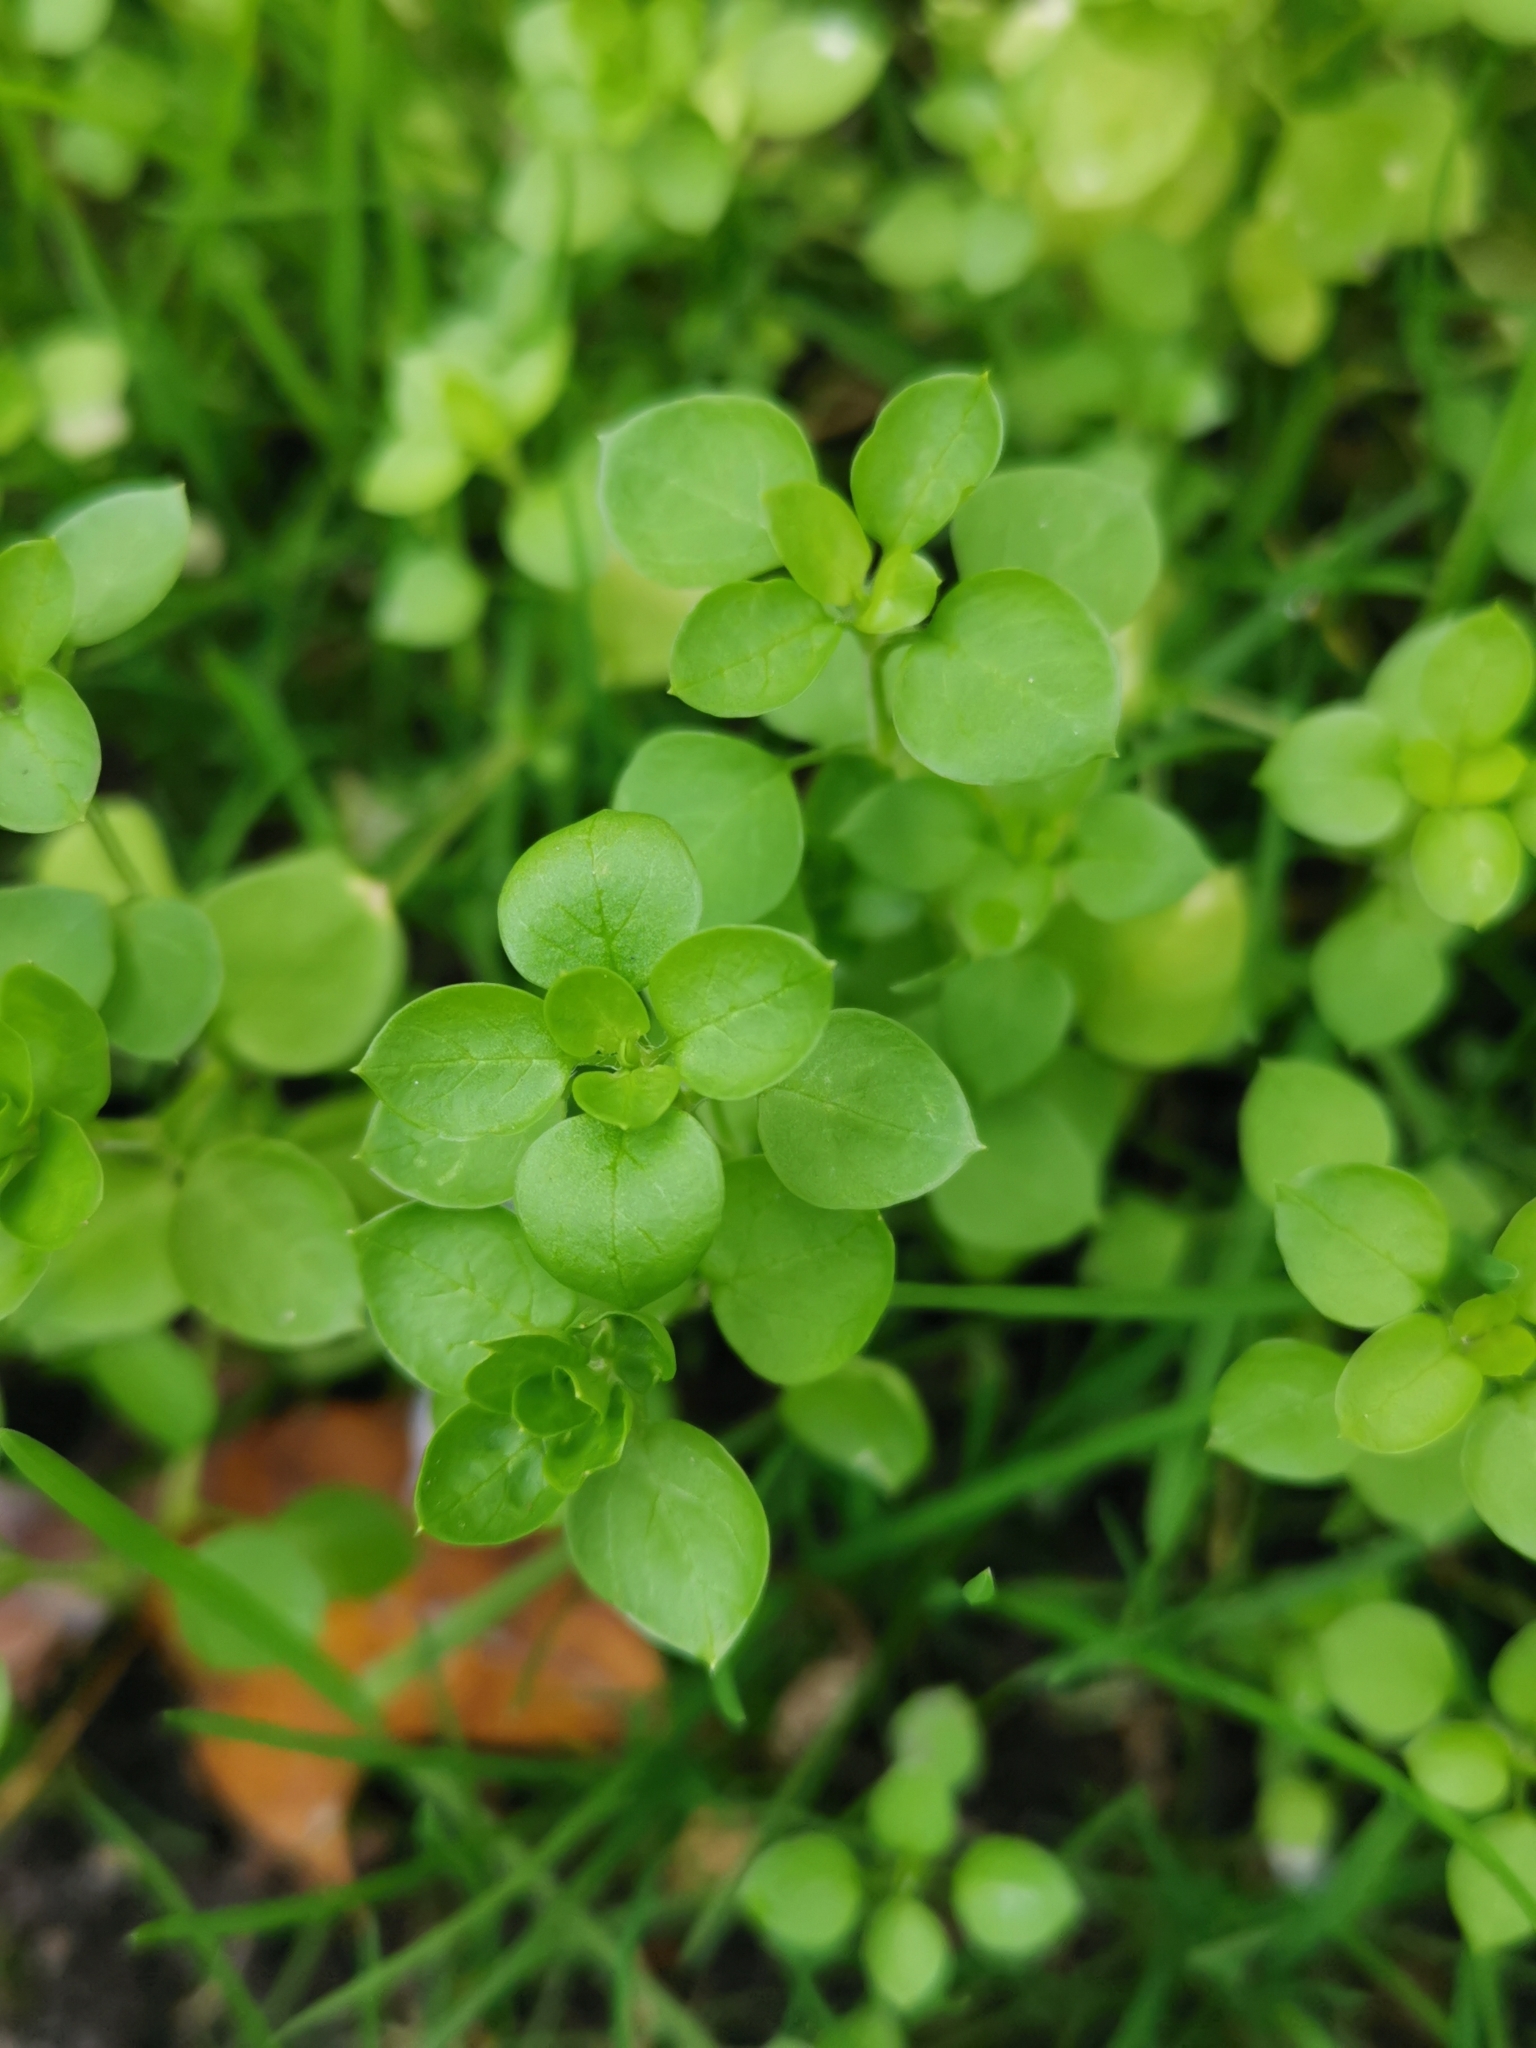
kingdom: Plantae
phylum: Tracheophyta
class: Magnoliopsida
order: Caryophyllales
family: Caryophyllaceae
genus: Stellaria
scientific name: Stellaria media
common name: Common chickweed
